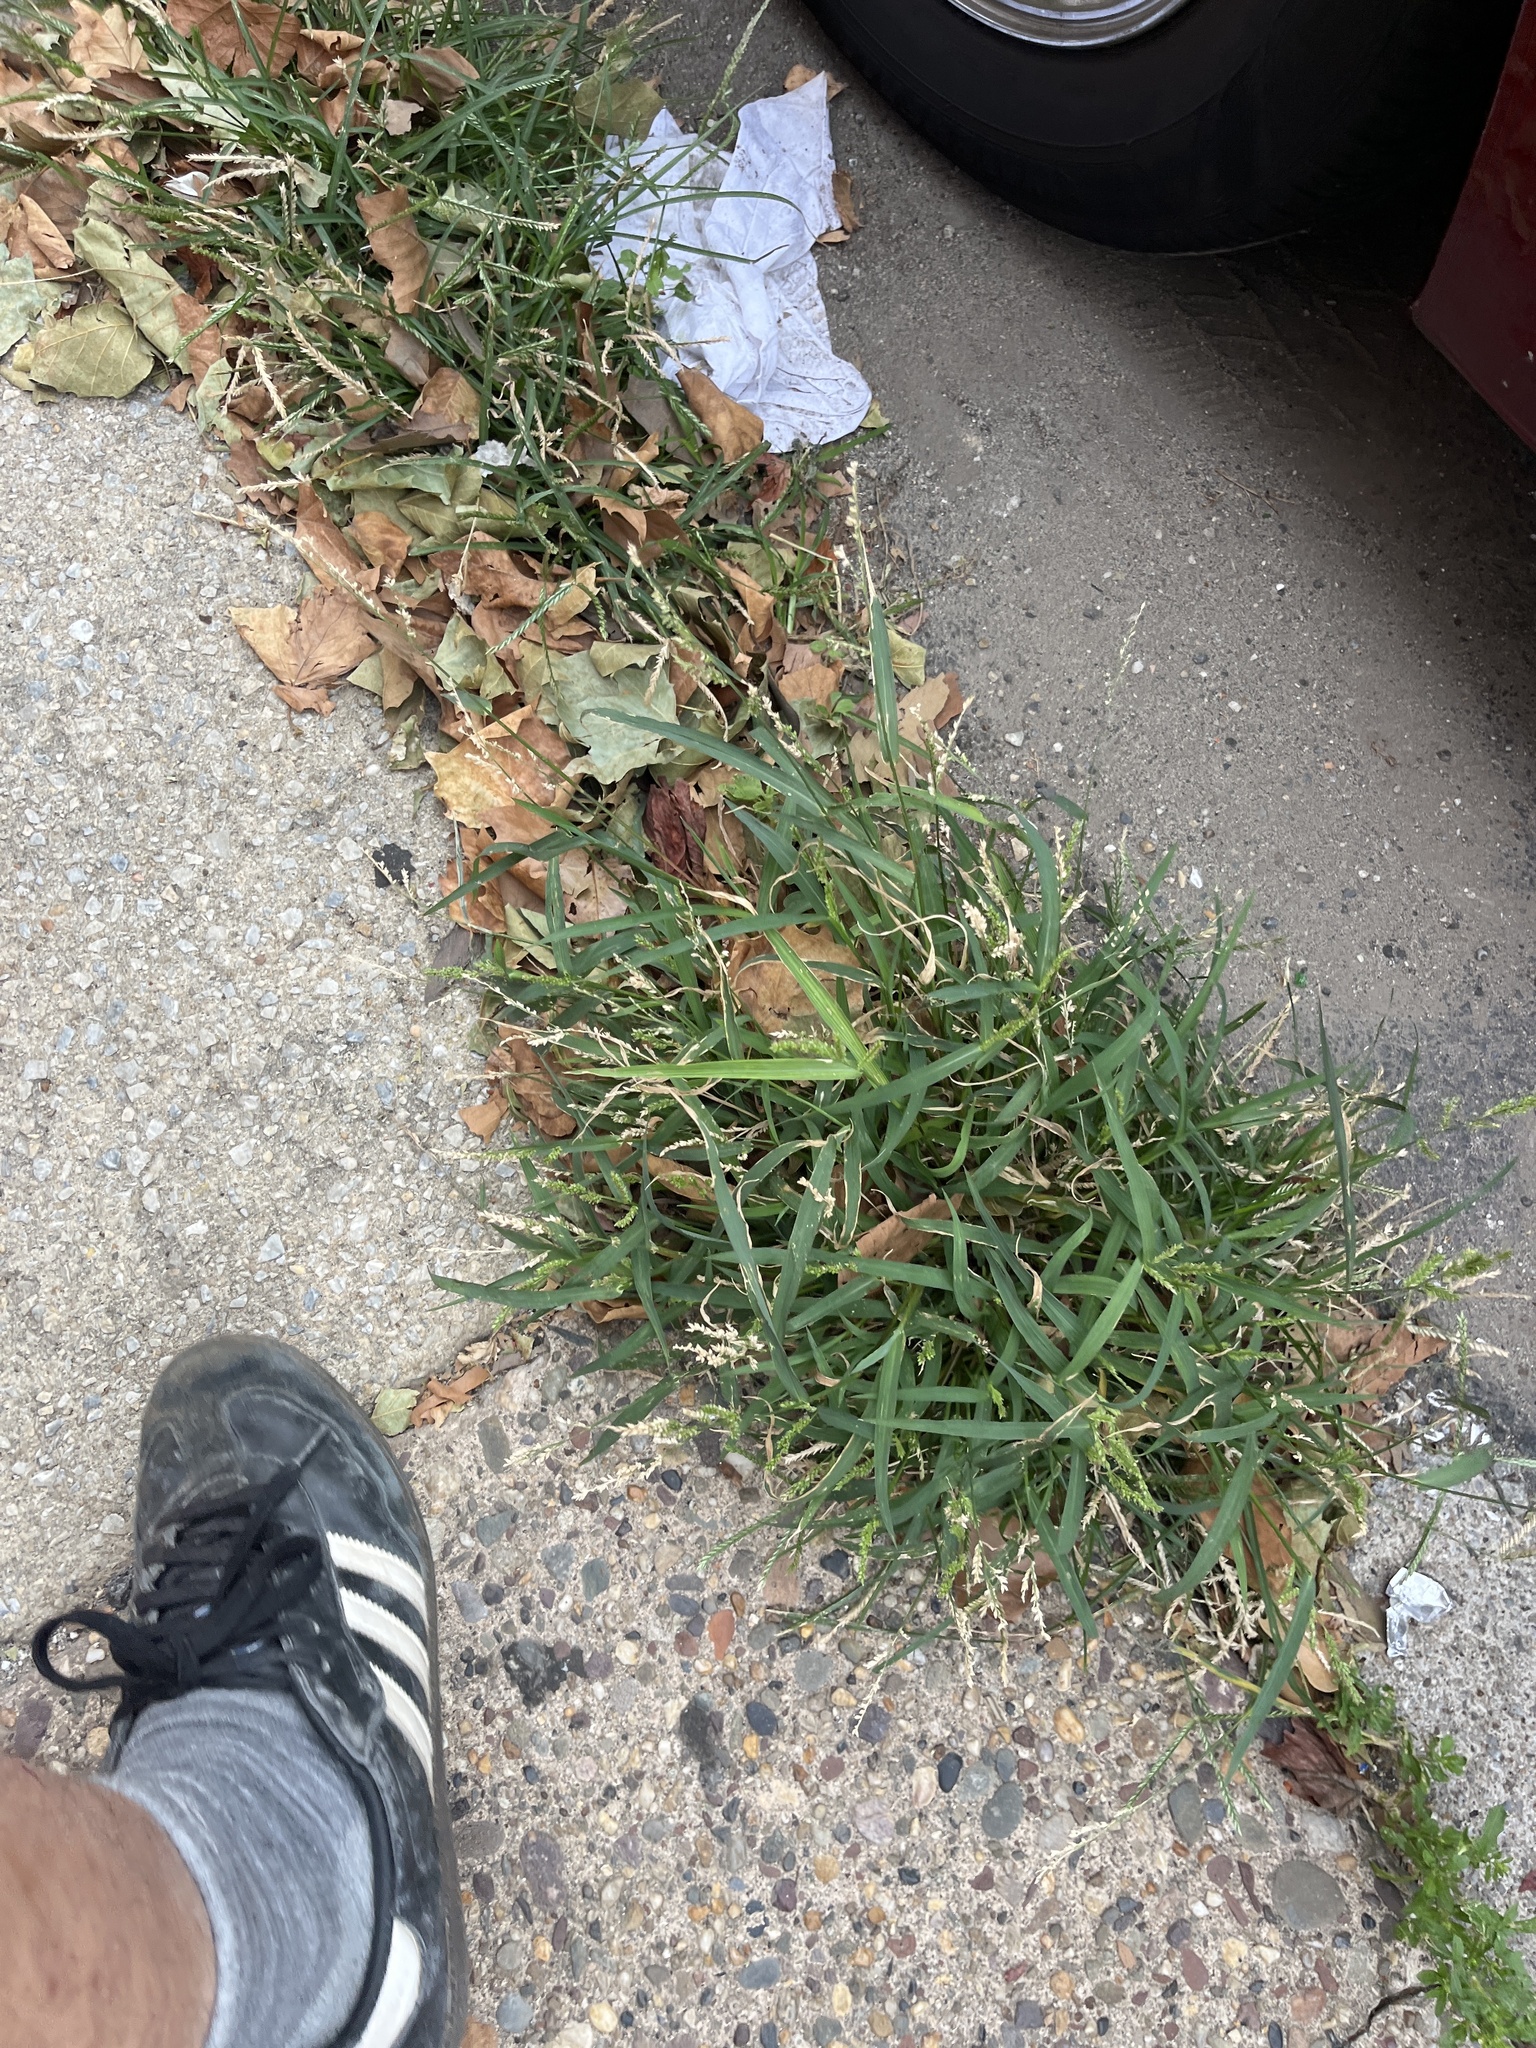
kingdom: Plantae
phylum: Tracheophyta
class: Liliopsida
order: Poales
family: Poaceae
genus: Eleusine
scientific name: Eleusine indica
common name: Yard-grass
